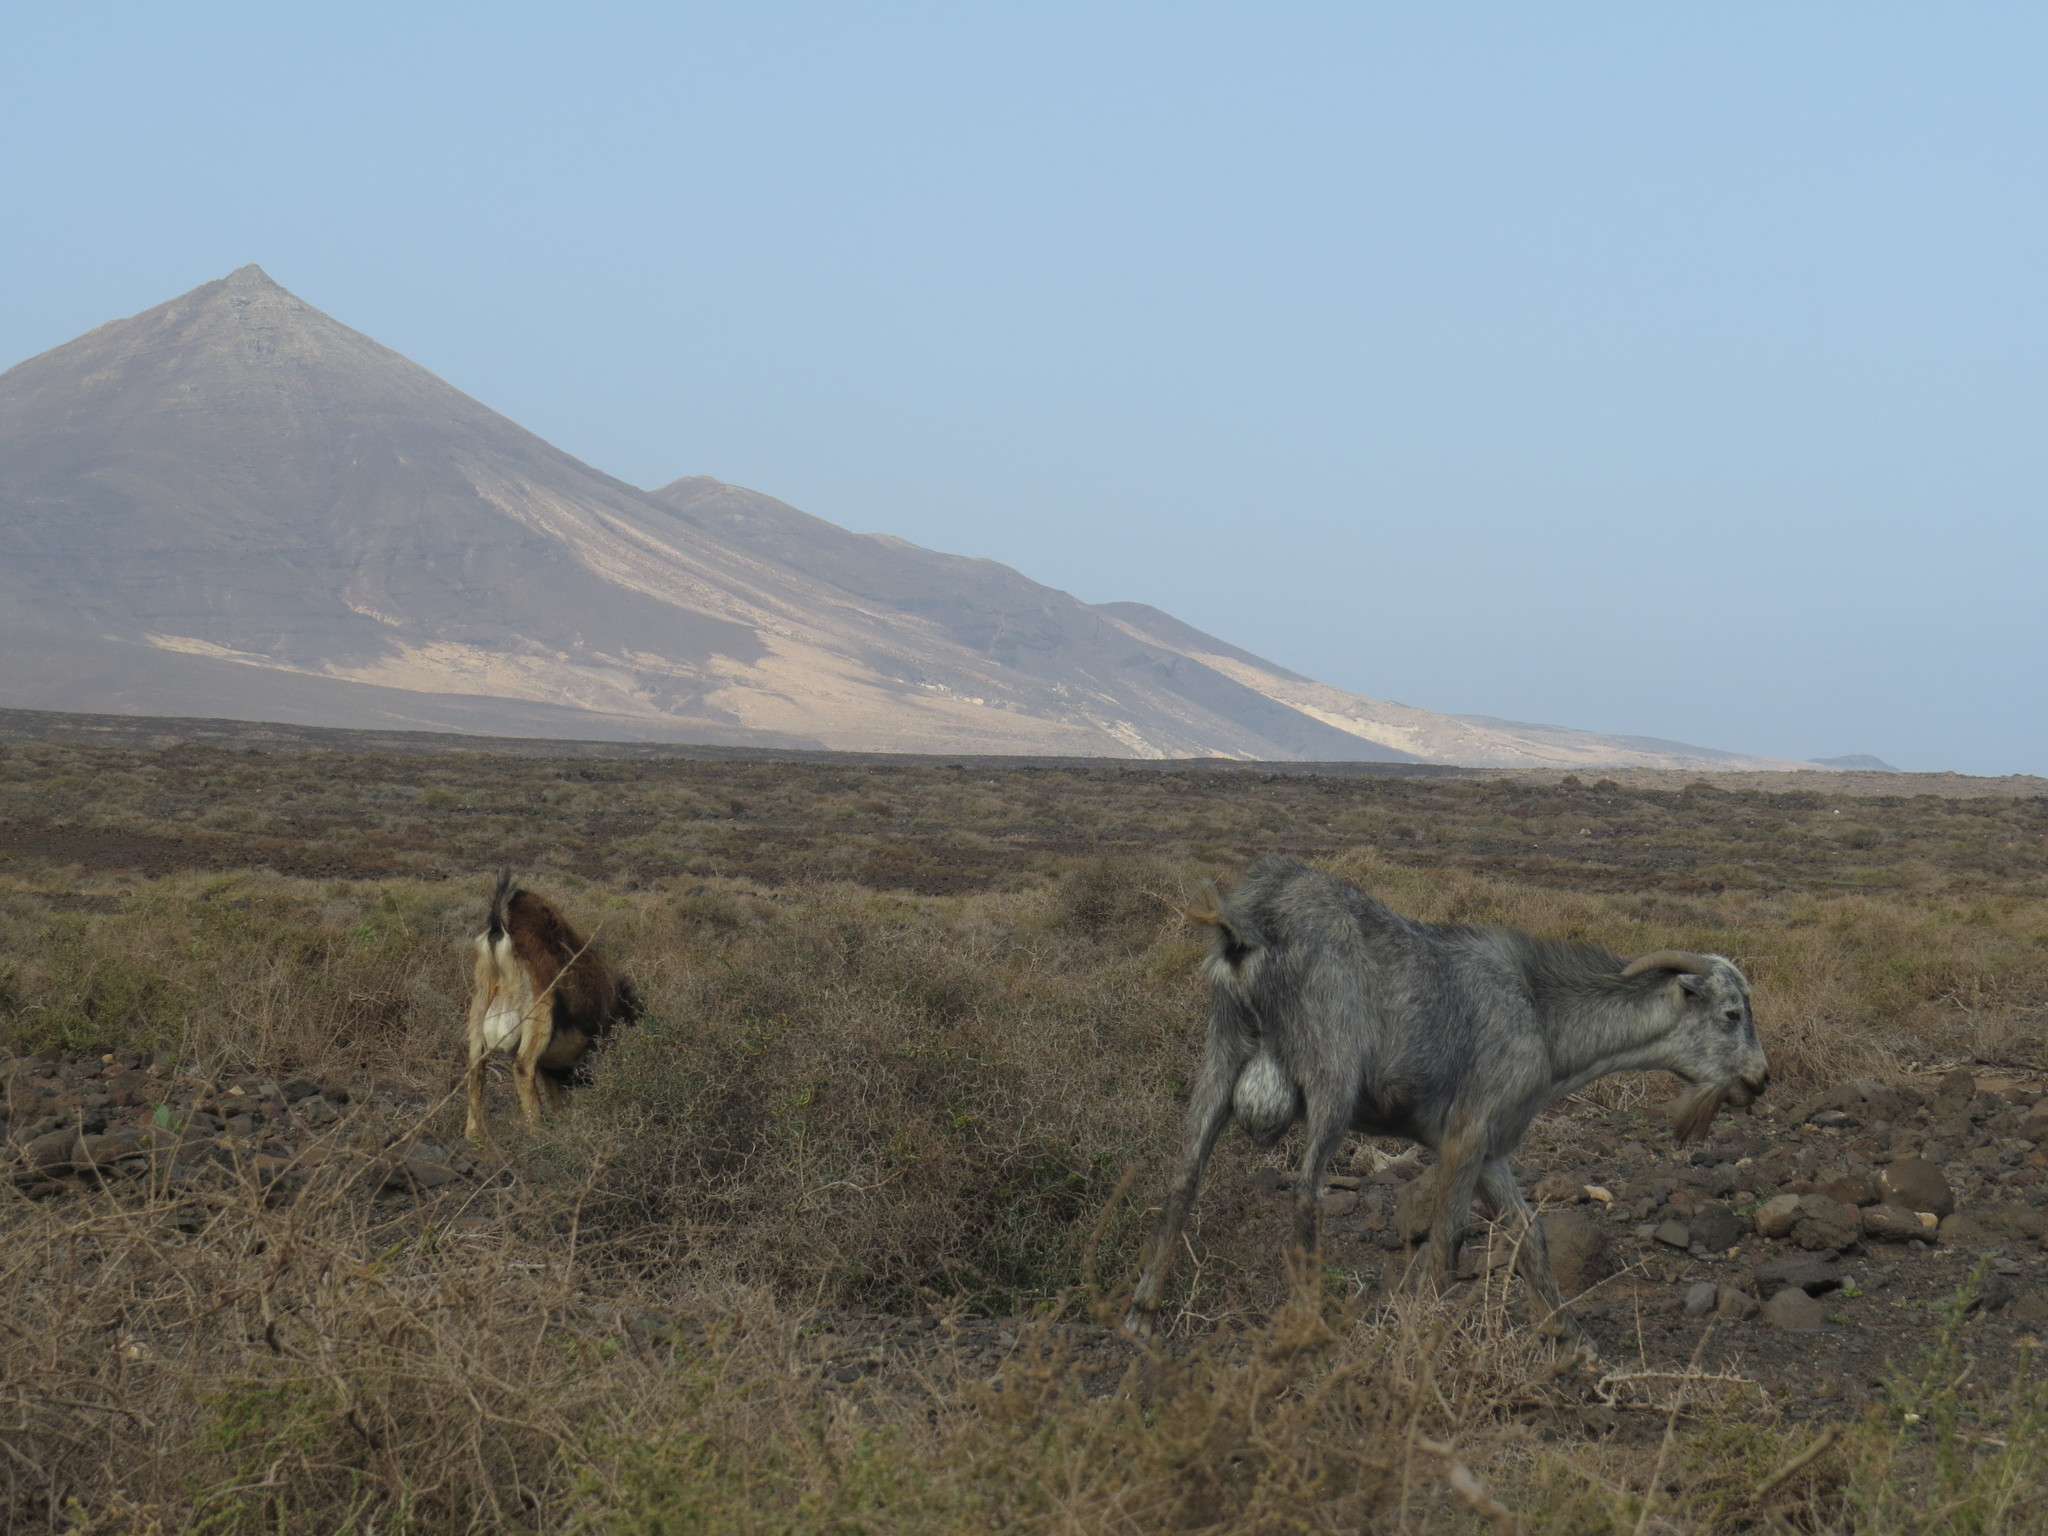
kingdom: Animalia
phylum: Chordata
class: Mammalia
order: Artiodactyla
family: Bovidae
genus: Capra
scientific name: Capra hircus
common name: Domestic goat
